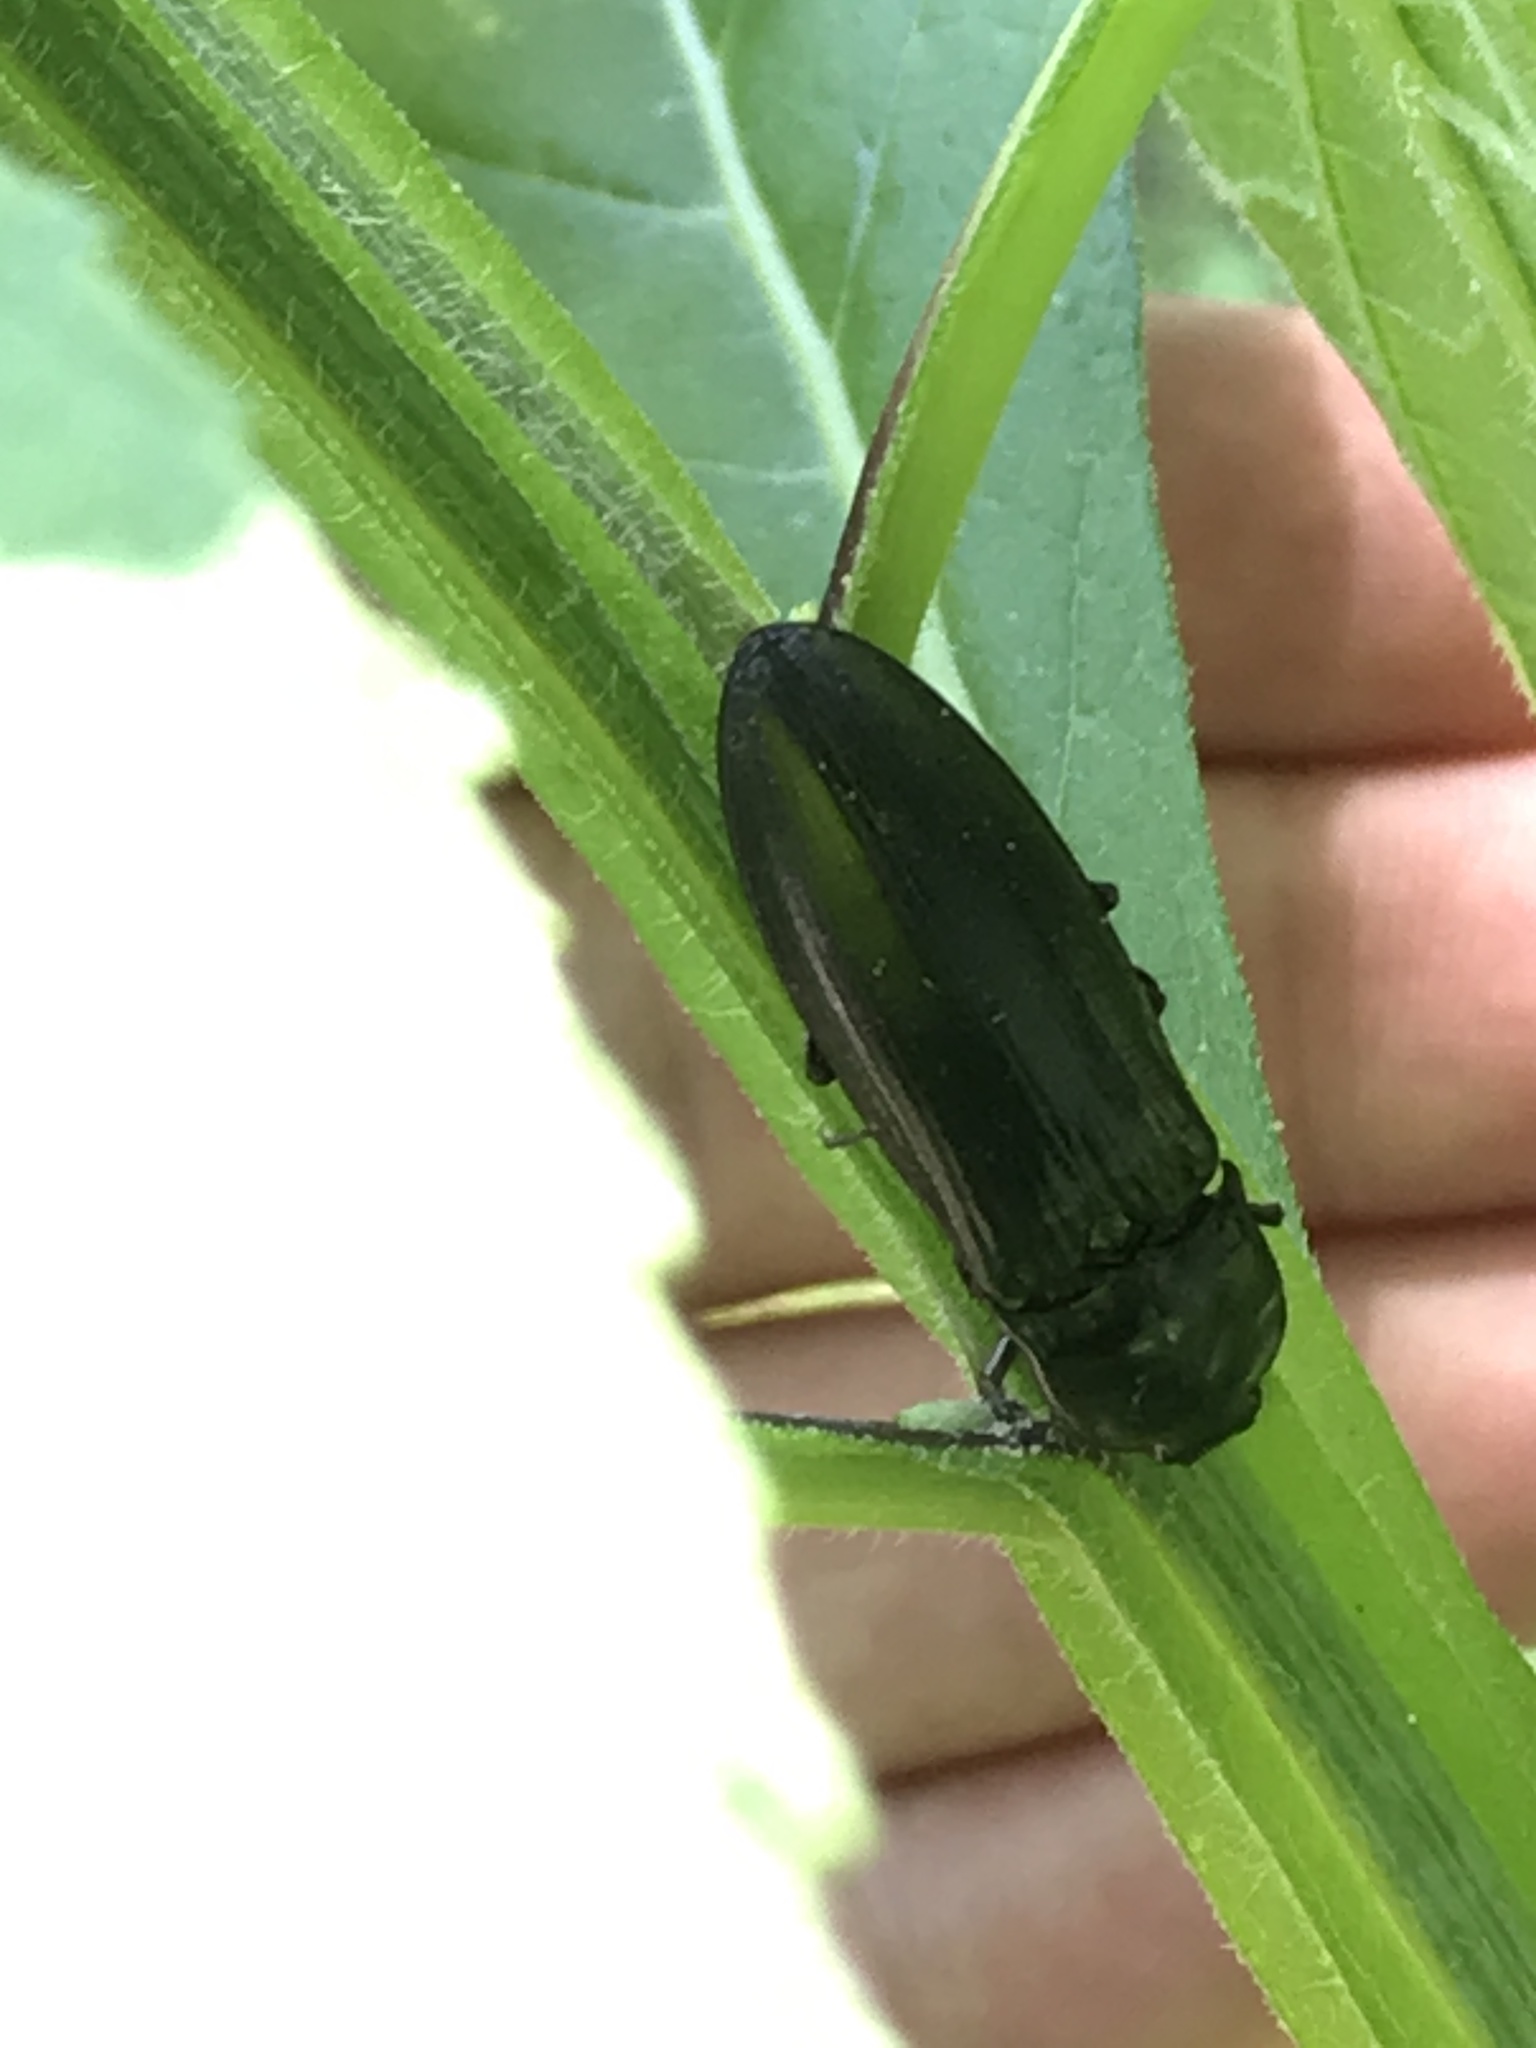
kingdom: Animalia
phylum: Arthropoda
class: Insecta
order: Coleoptera
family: Elateridae
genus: Melanactes
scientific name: Melanactes piceus
